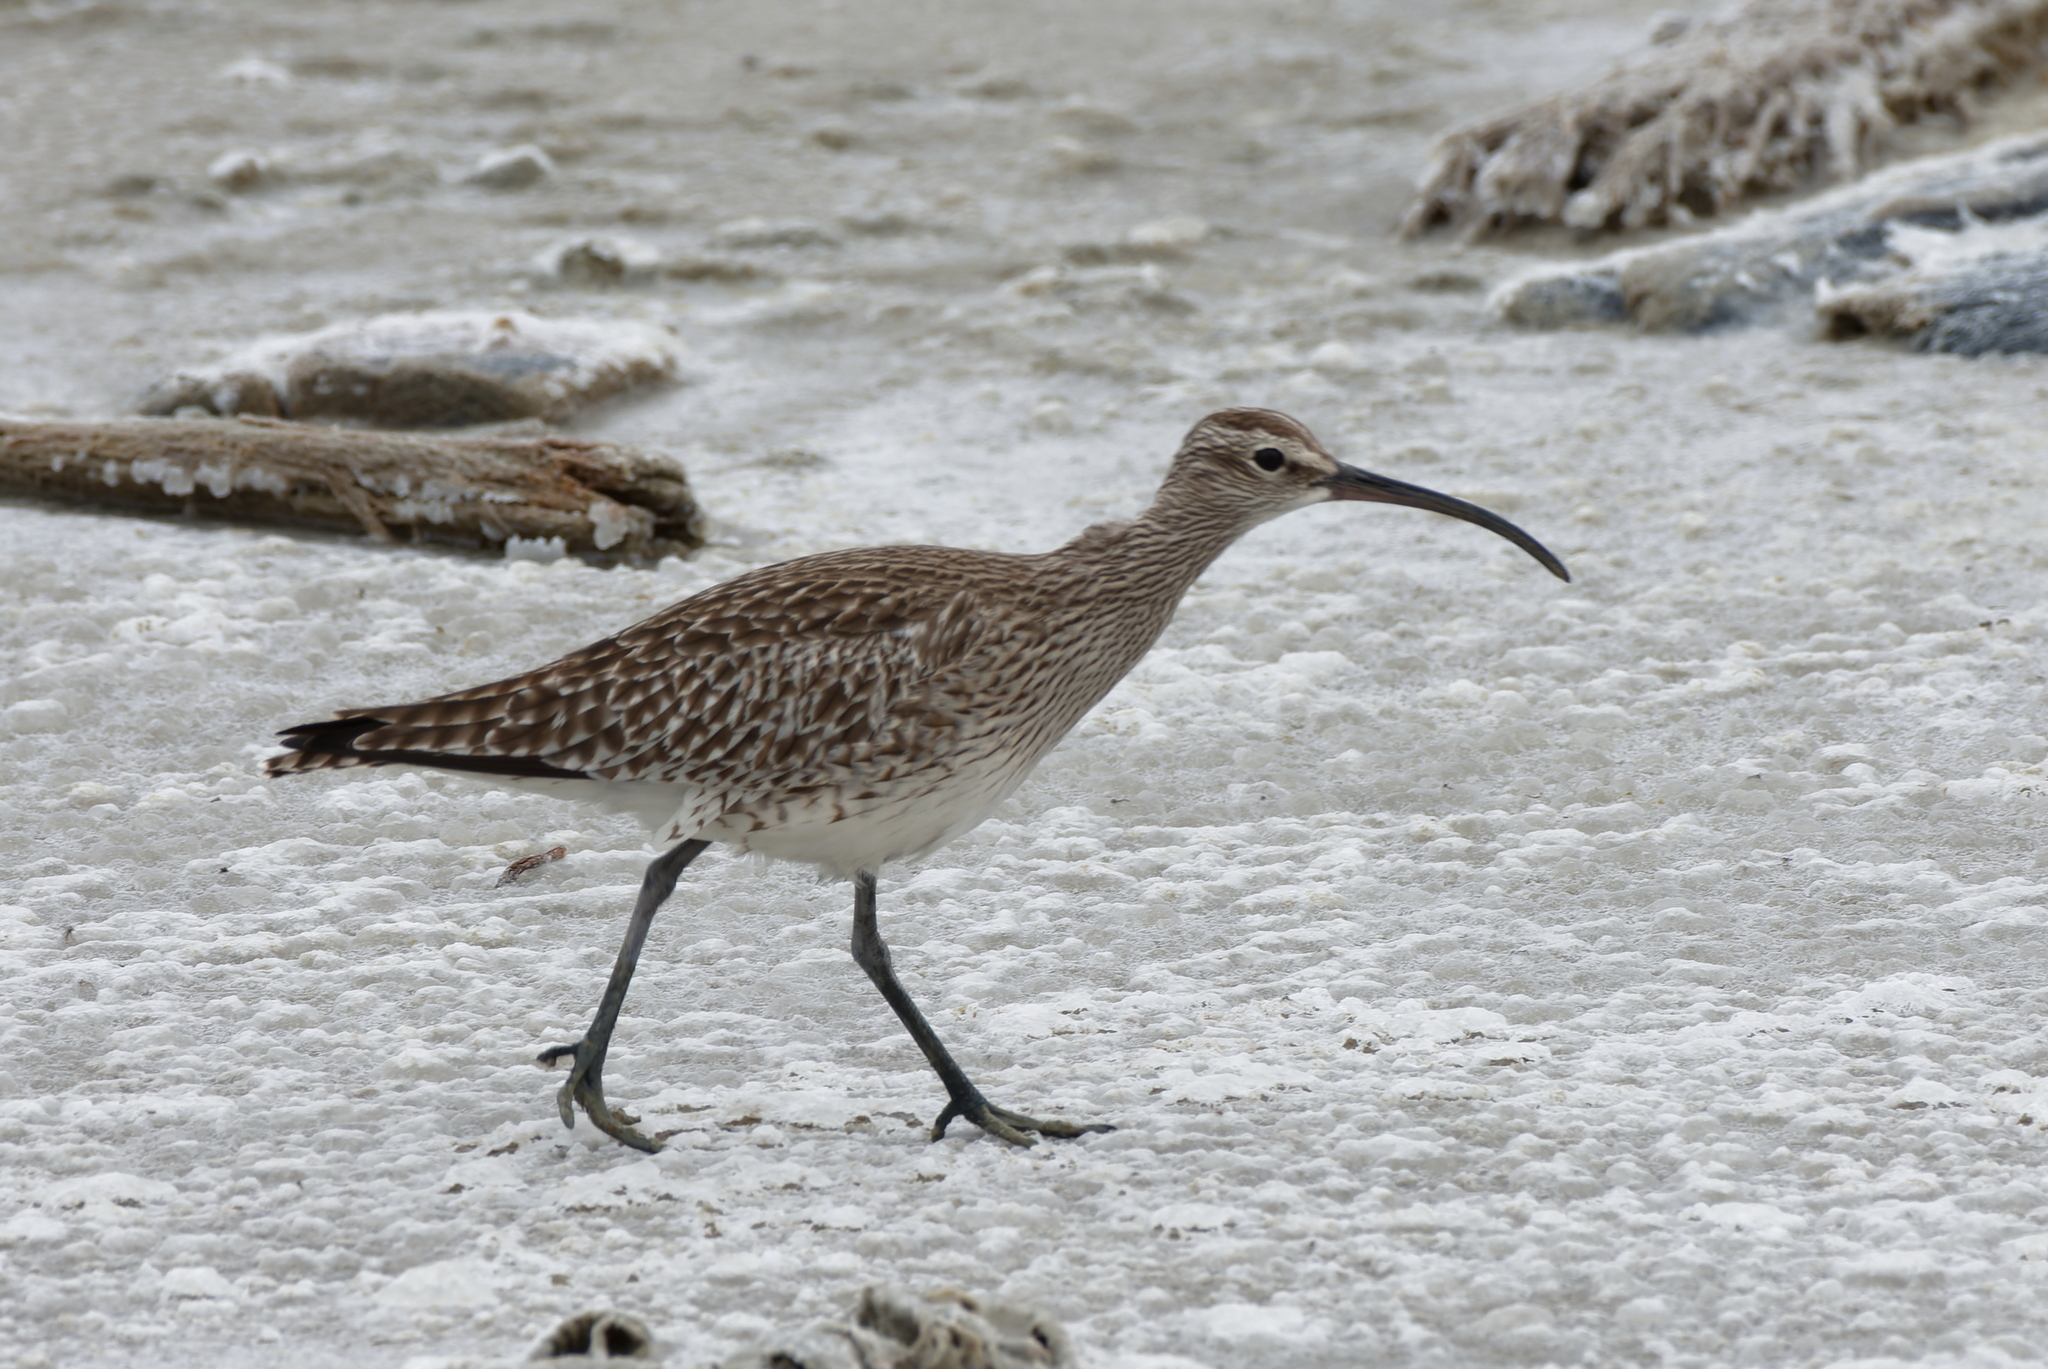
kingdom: Animalia
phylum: Chordata
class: Aves
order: Charadriiformes
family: Scolopacidae
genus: Numenius
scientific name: Numenius phaeopus
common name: Whimbrel
